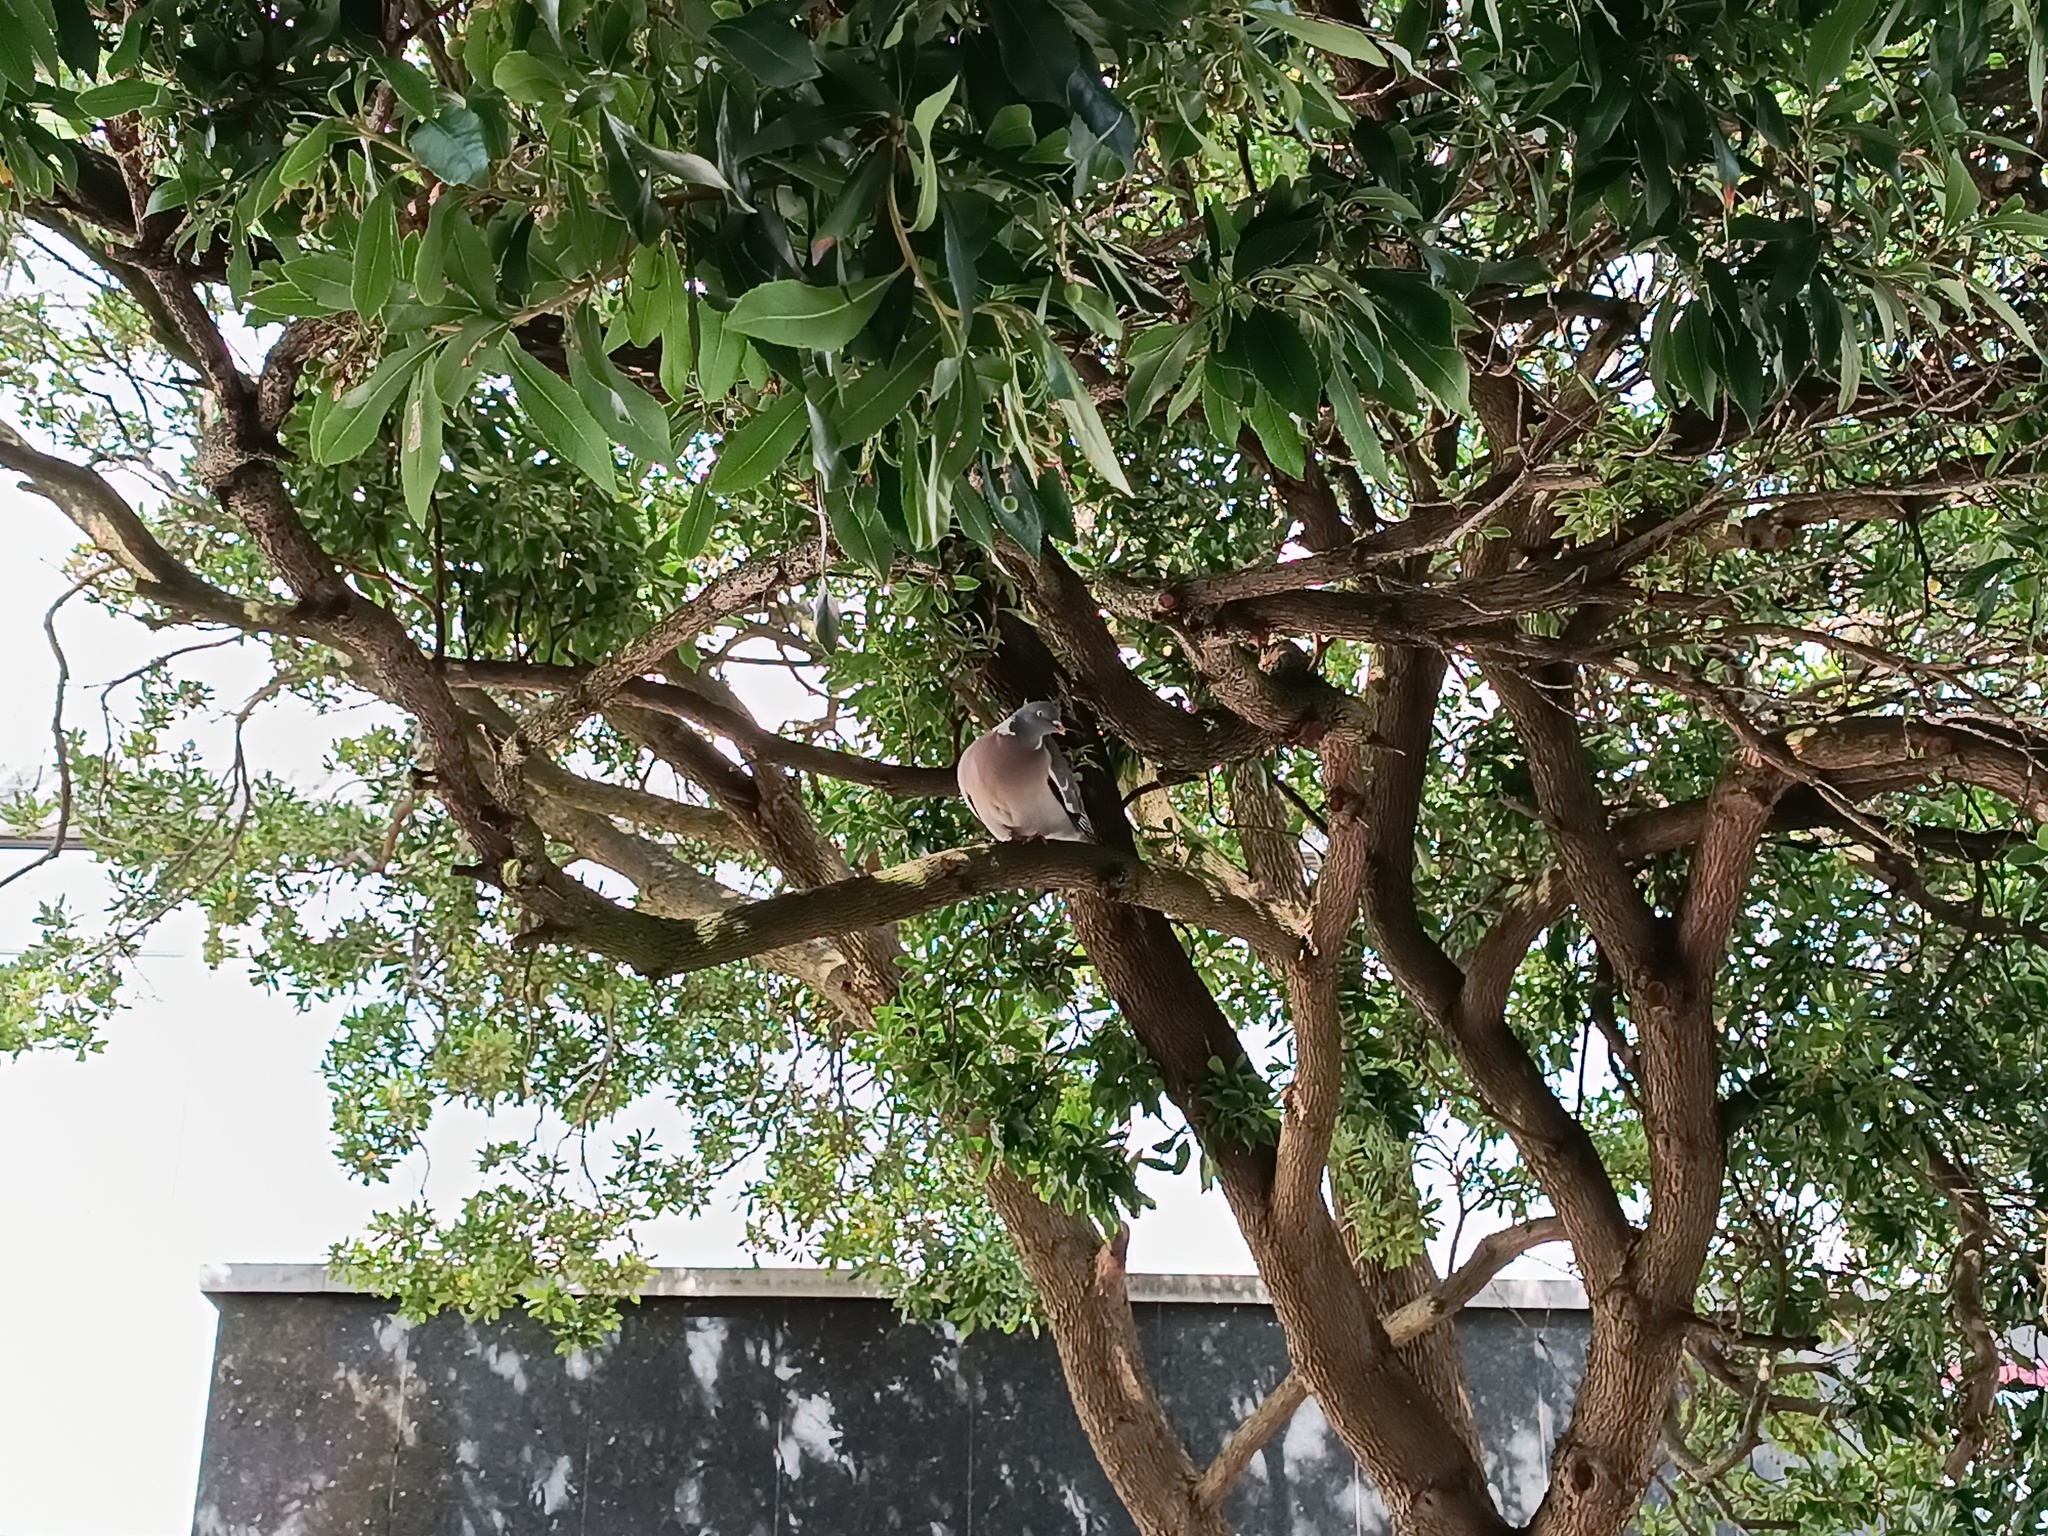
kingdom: Animalia
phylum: Chordata
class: Aves
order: Columbiformes
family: Columbidae
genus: Columba
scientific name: Columba palumbus
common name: Common wood pigeon
